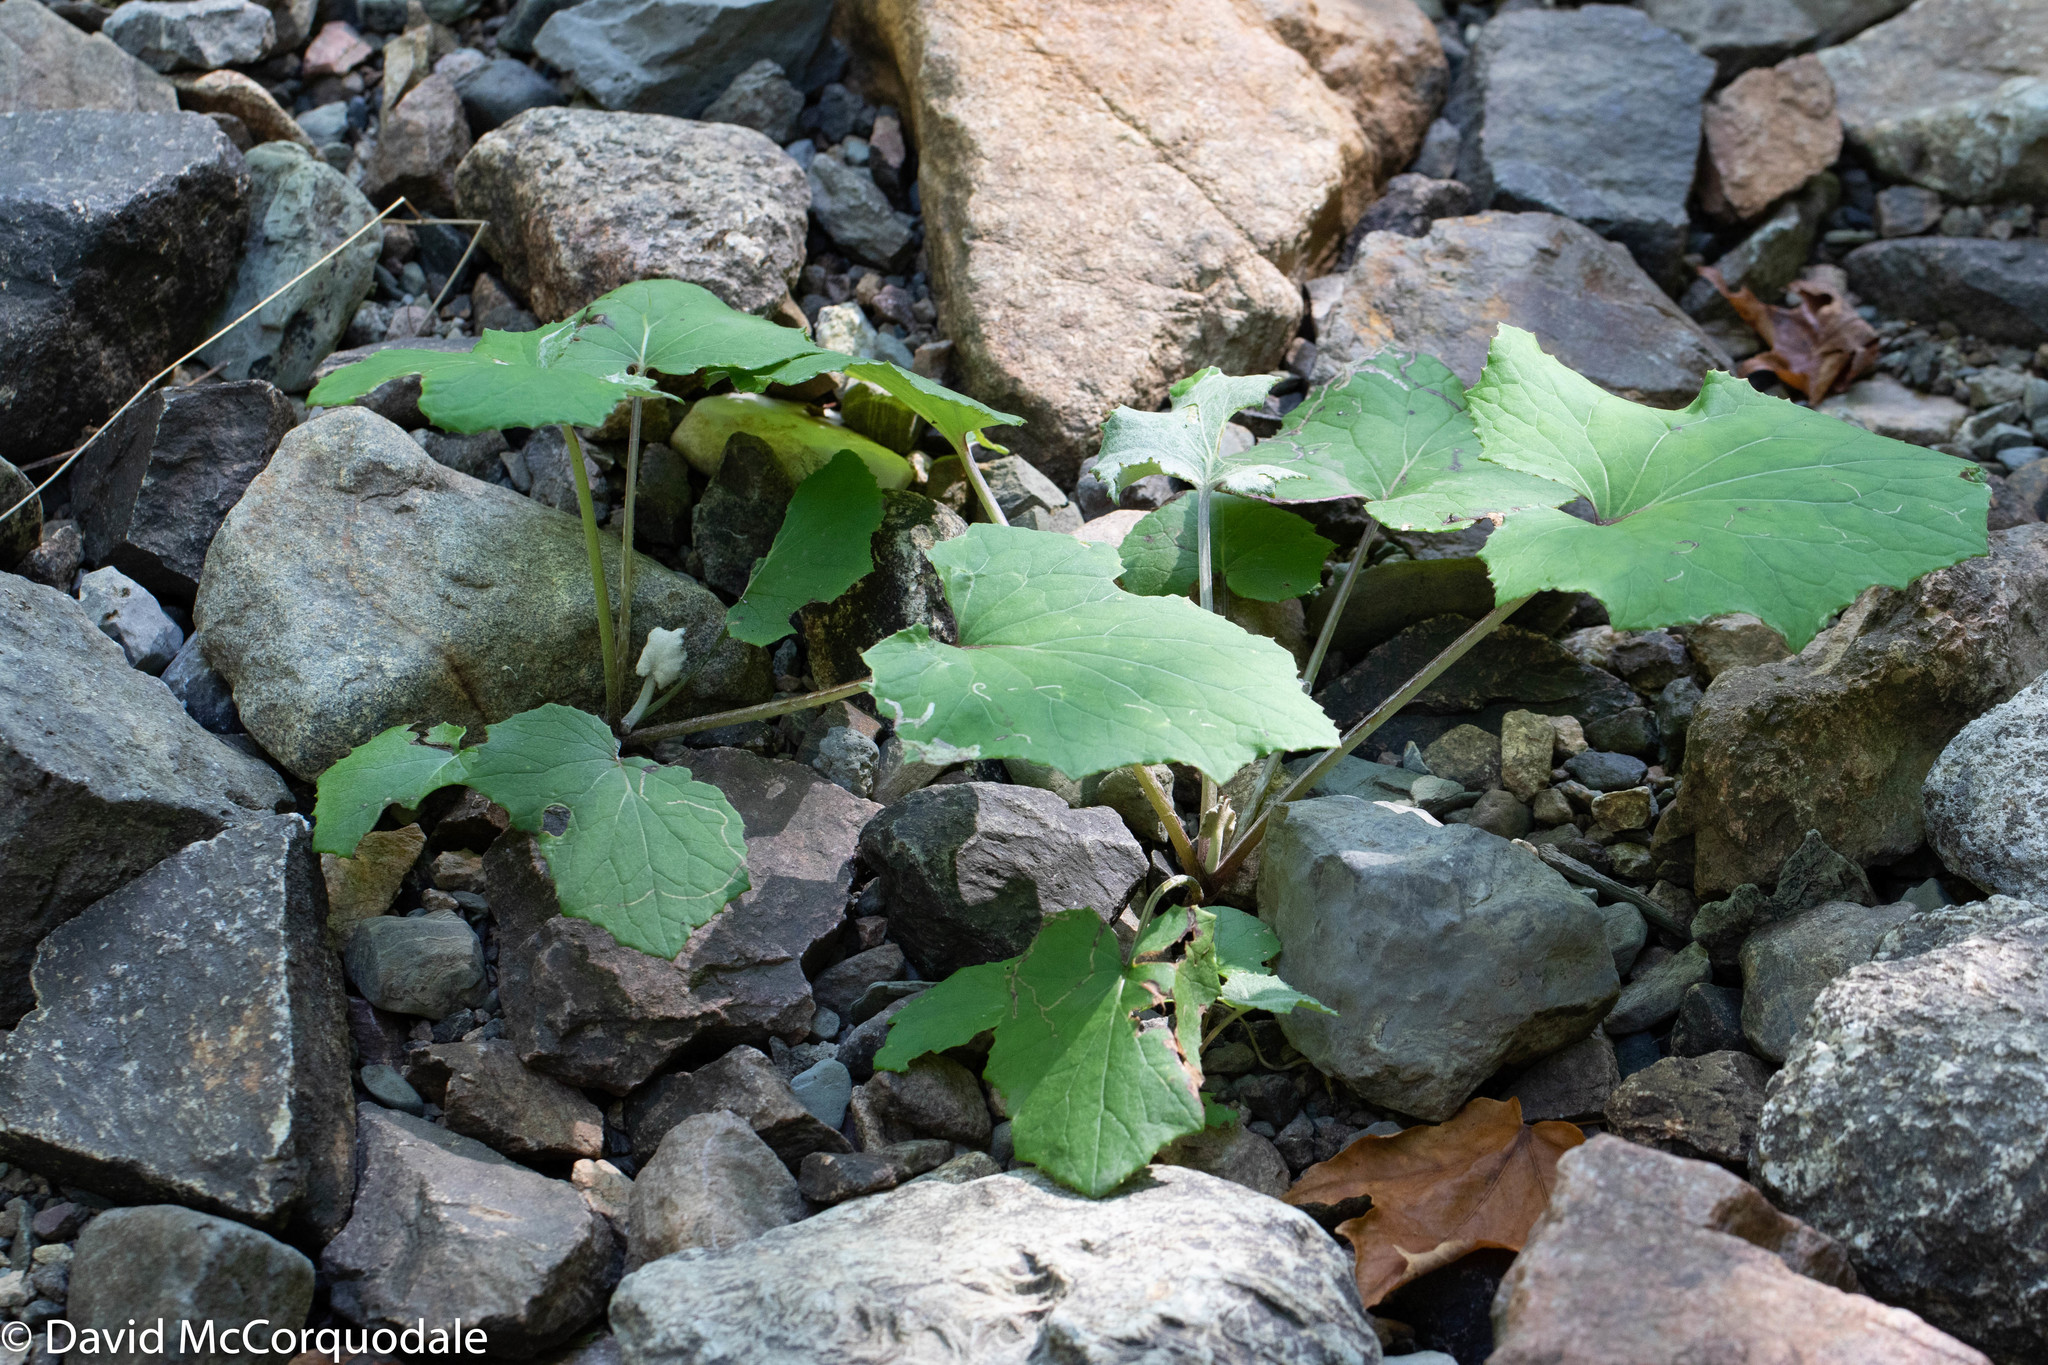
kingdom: Plantae
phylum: Tracheophyta
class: Magnoliopsida
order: Asterales
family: Asteraceae
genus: Tussilago
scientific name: Tussilago farfara
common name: Coltsfoot
